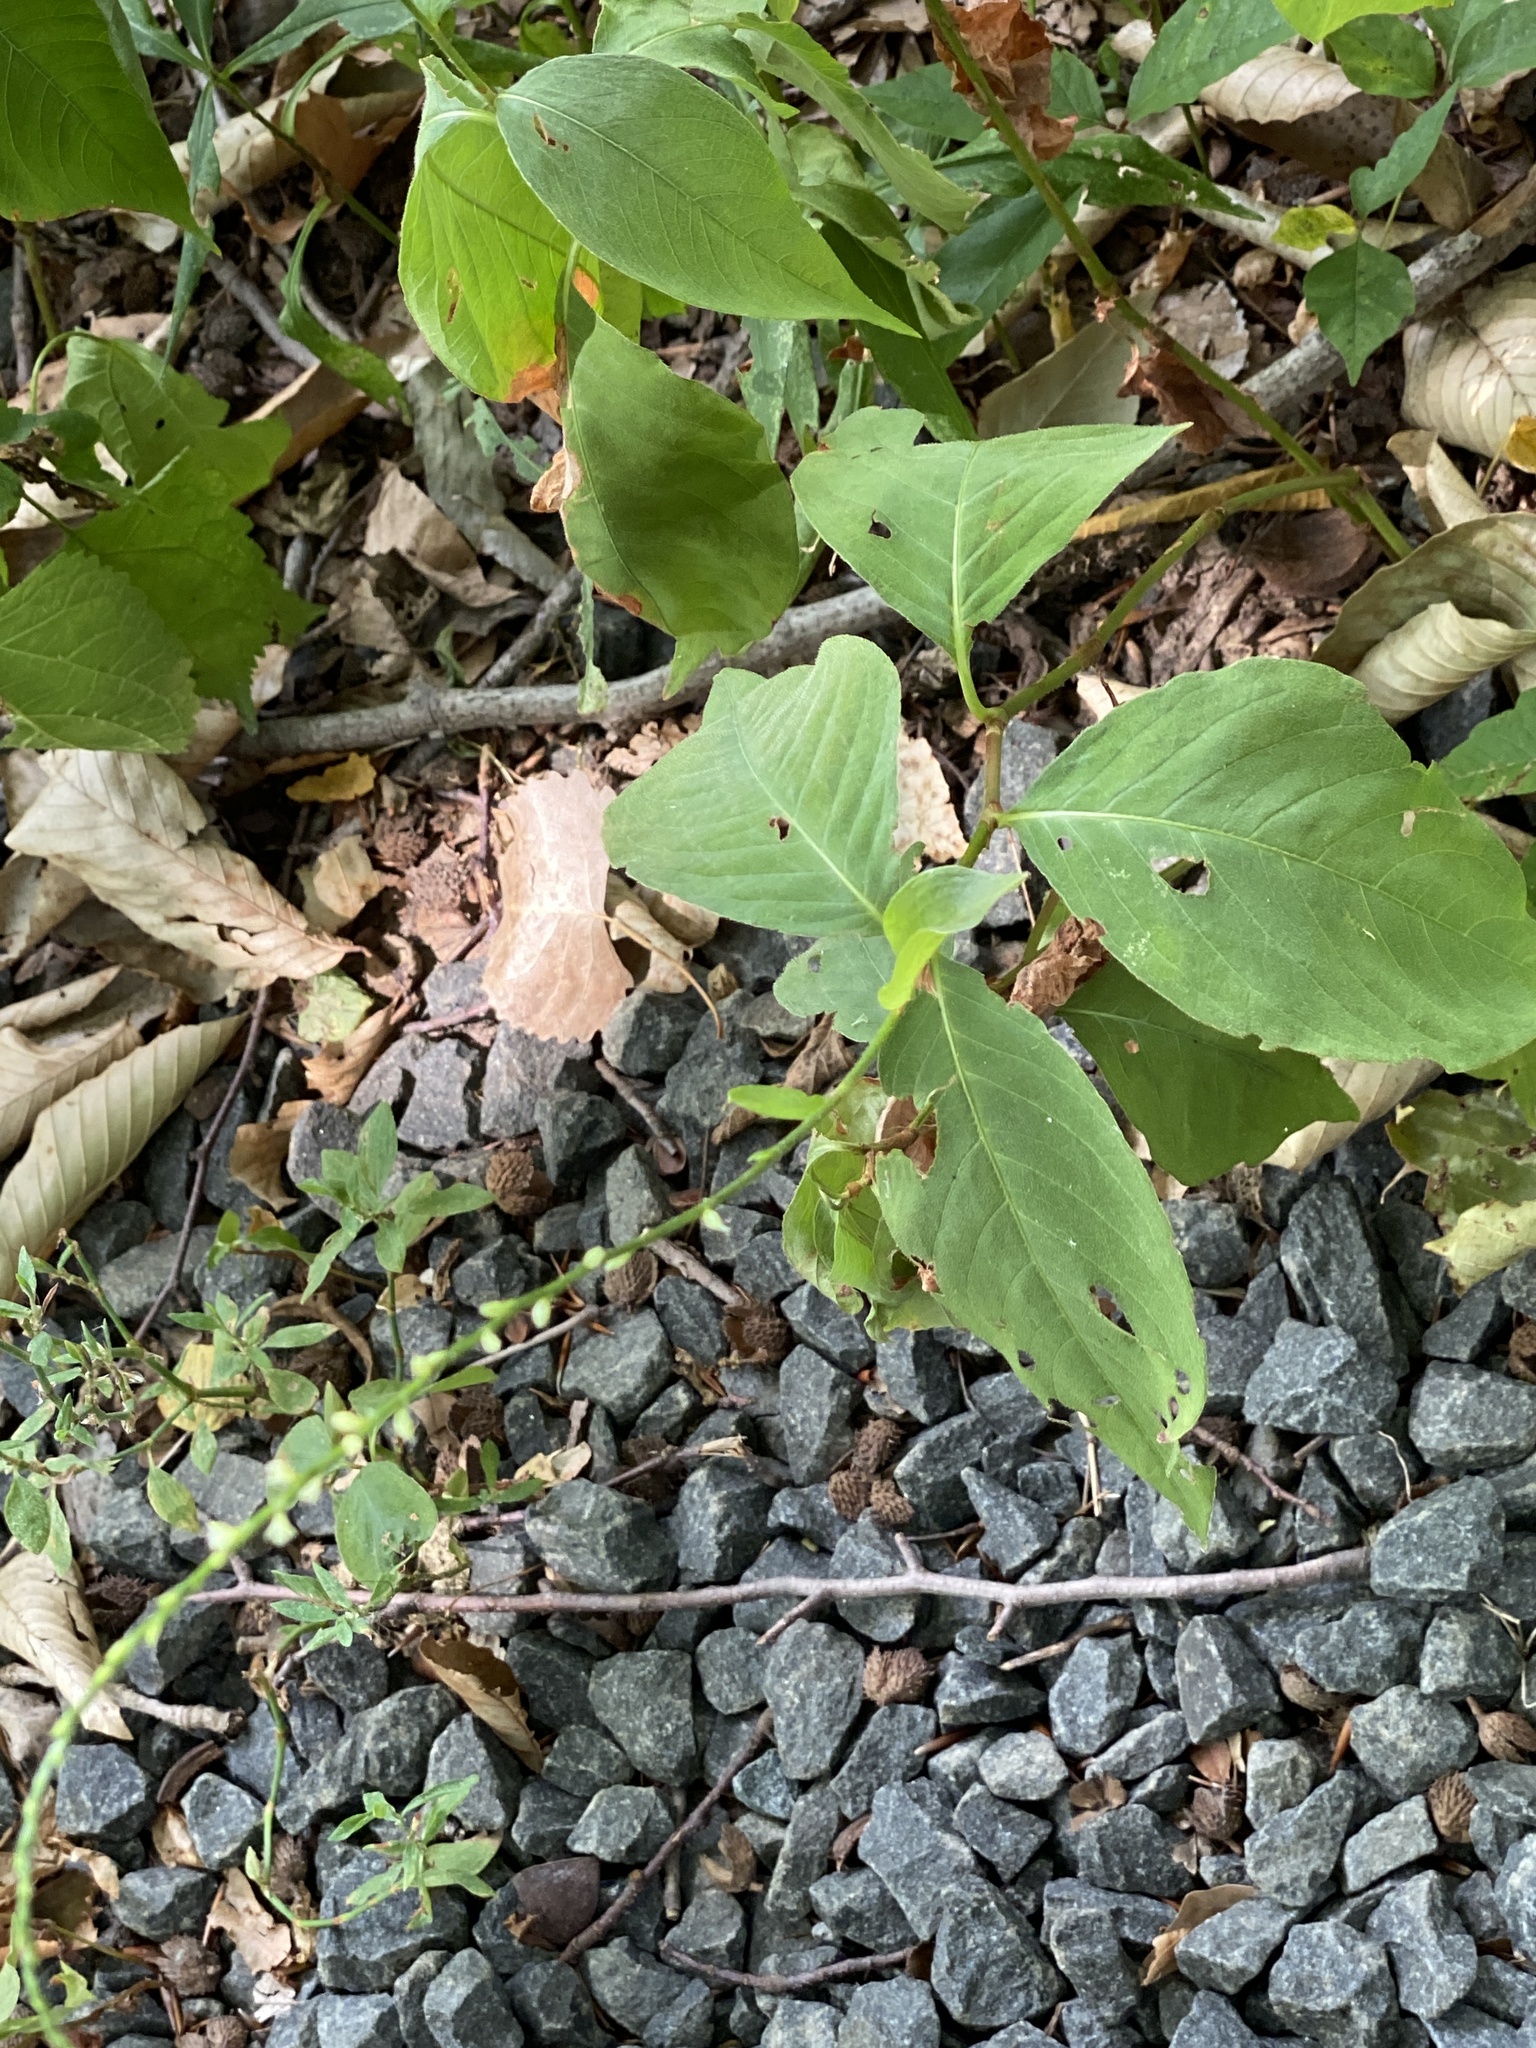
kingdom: Plantae
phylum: Tracheophyta
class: Magnoliopsida
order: Caryophyllales
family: Polygonaceae
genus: Persicaria
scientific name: Persicaria virginiana
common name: Jumpseed
